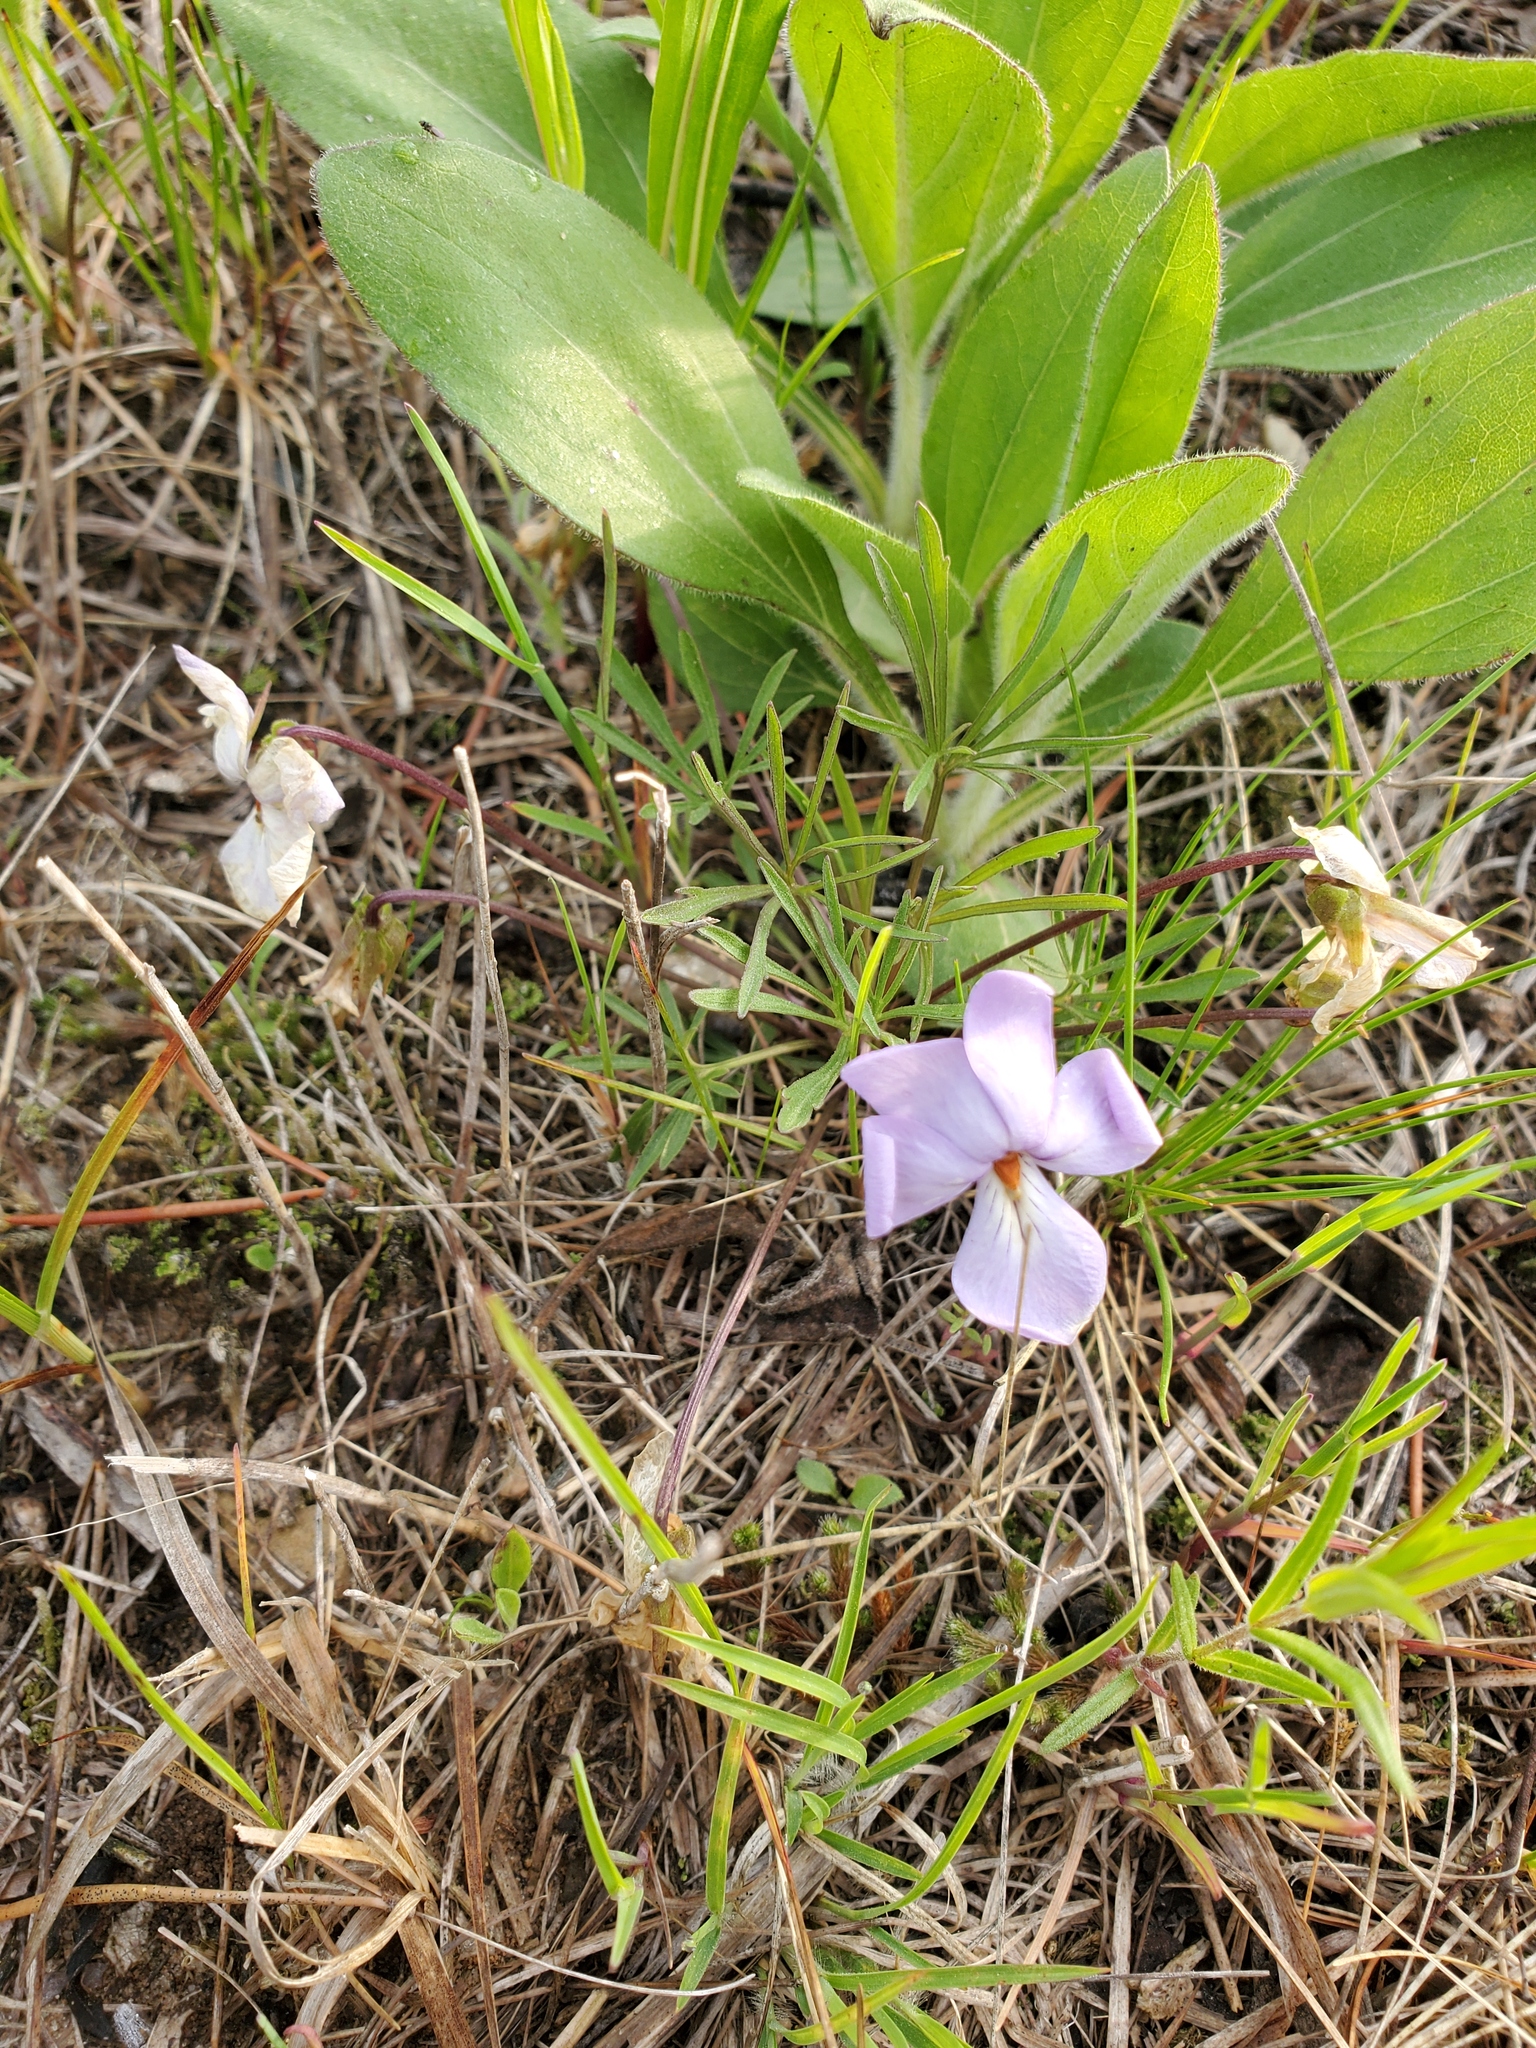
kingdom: Plantae
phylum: Tracheophyta
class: Magnoliopsida
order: Malpighiales
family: Violaceae
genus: Viola
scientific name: Viola pedata
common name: Pansy violet
